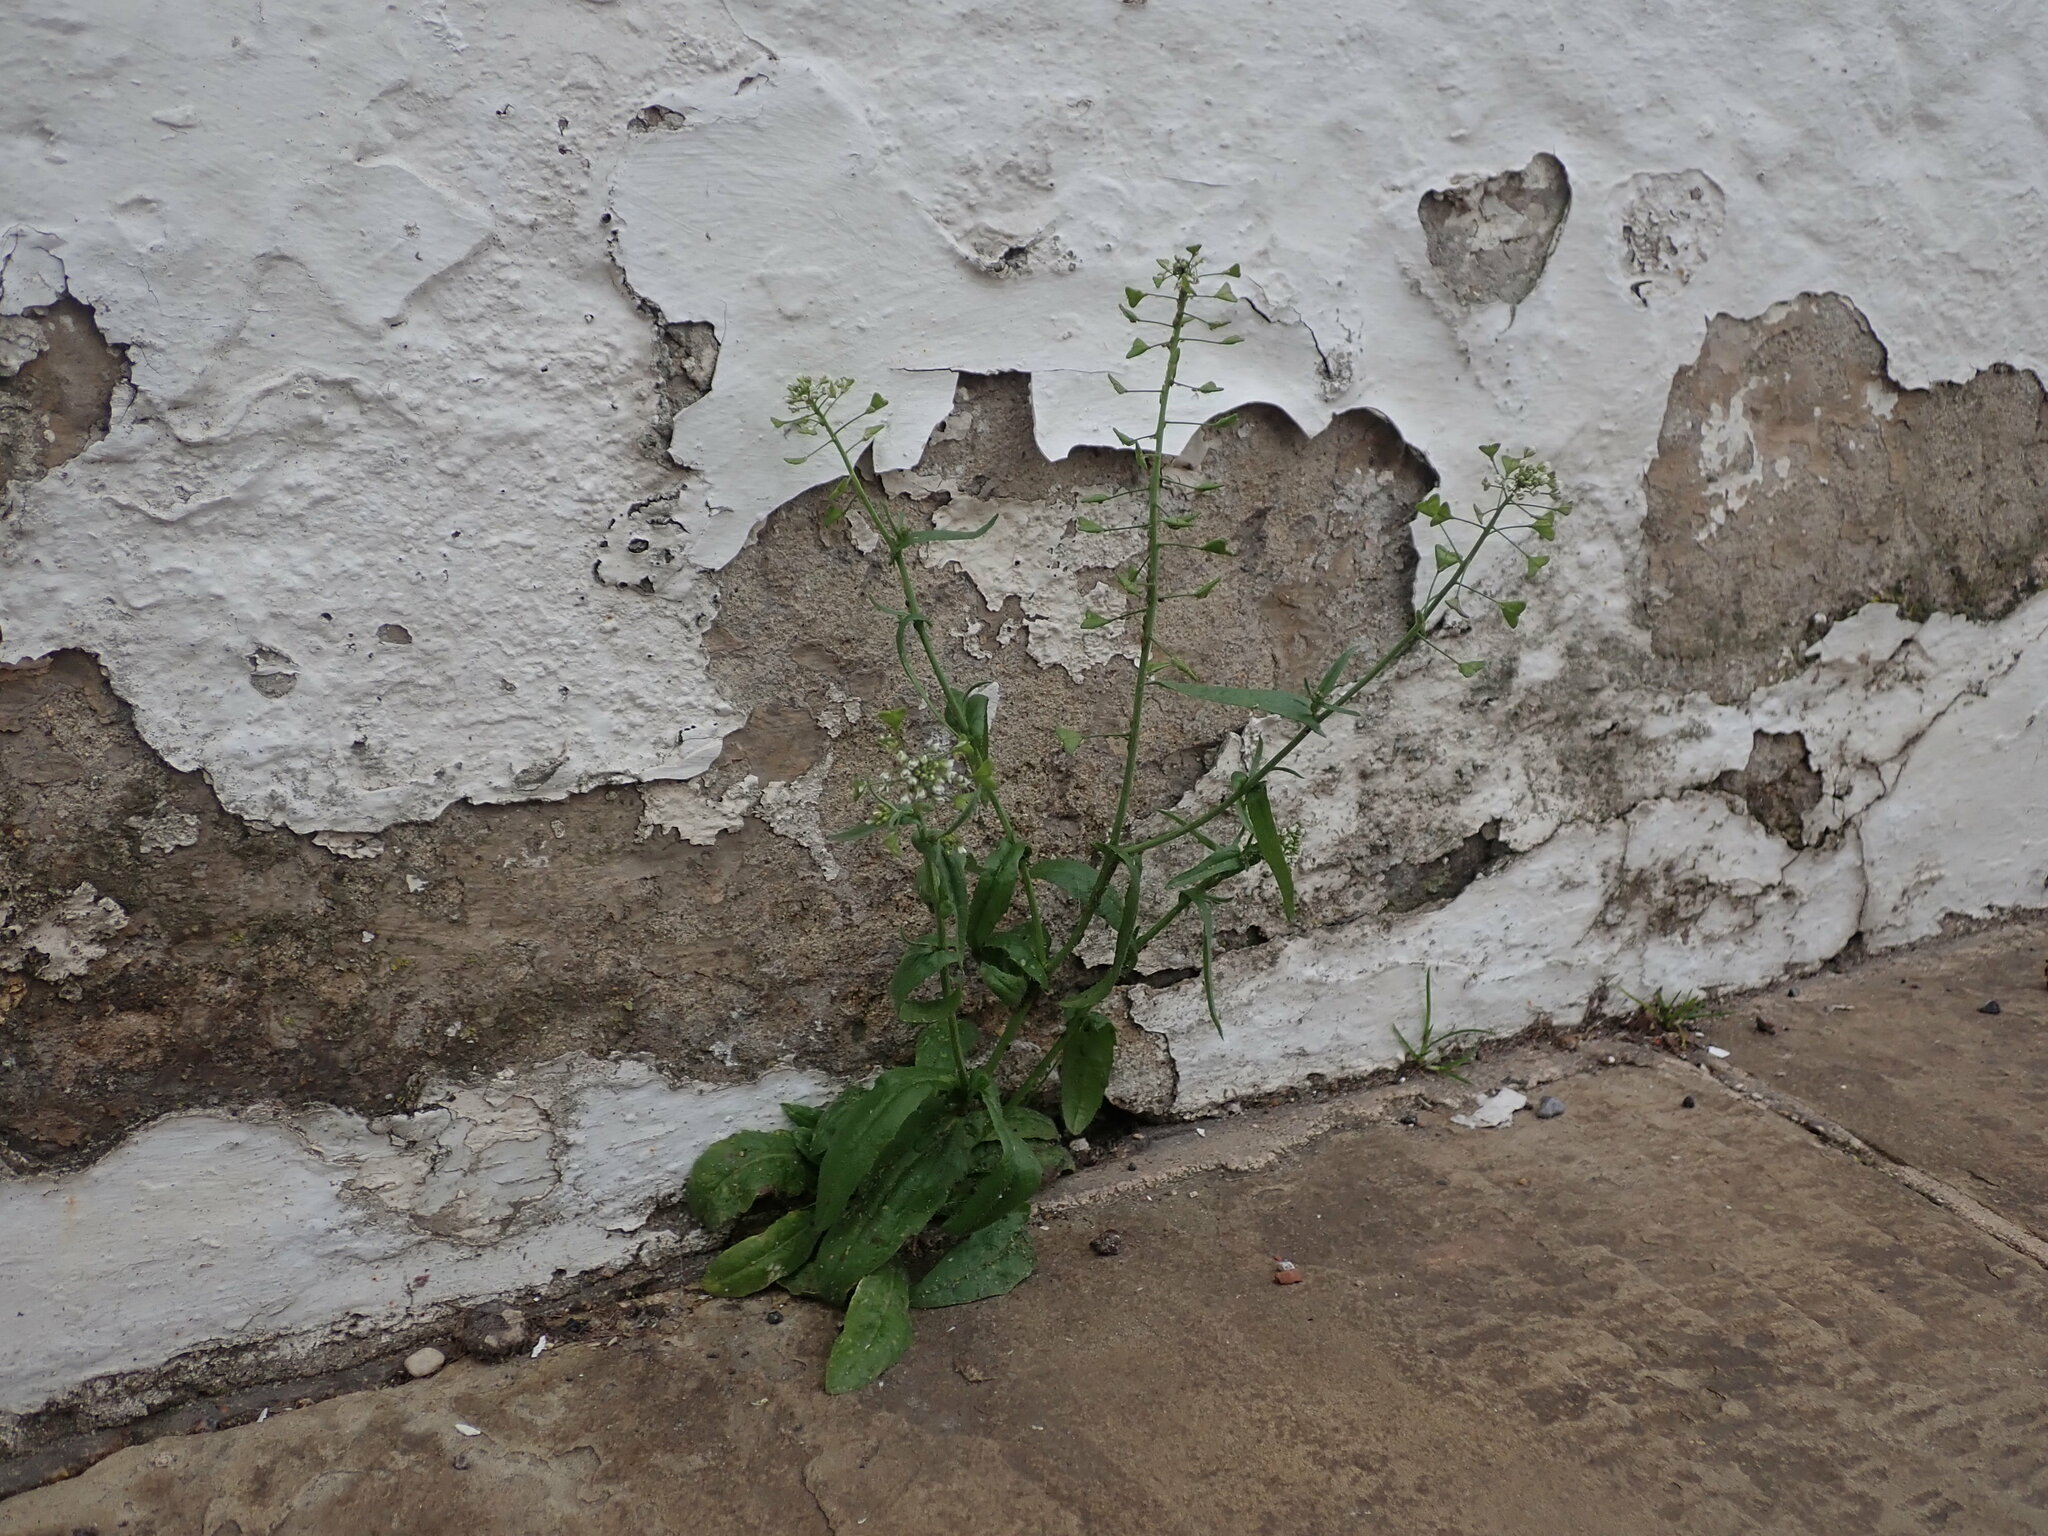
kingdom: Plantae
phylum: Tracheophyta
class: Magnoliopsida
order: Brassicales
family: Brassicaceae
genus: Capsella
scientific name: Capsella bursa-pastoris
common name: Shepherd's purse
